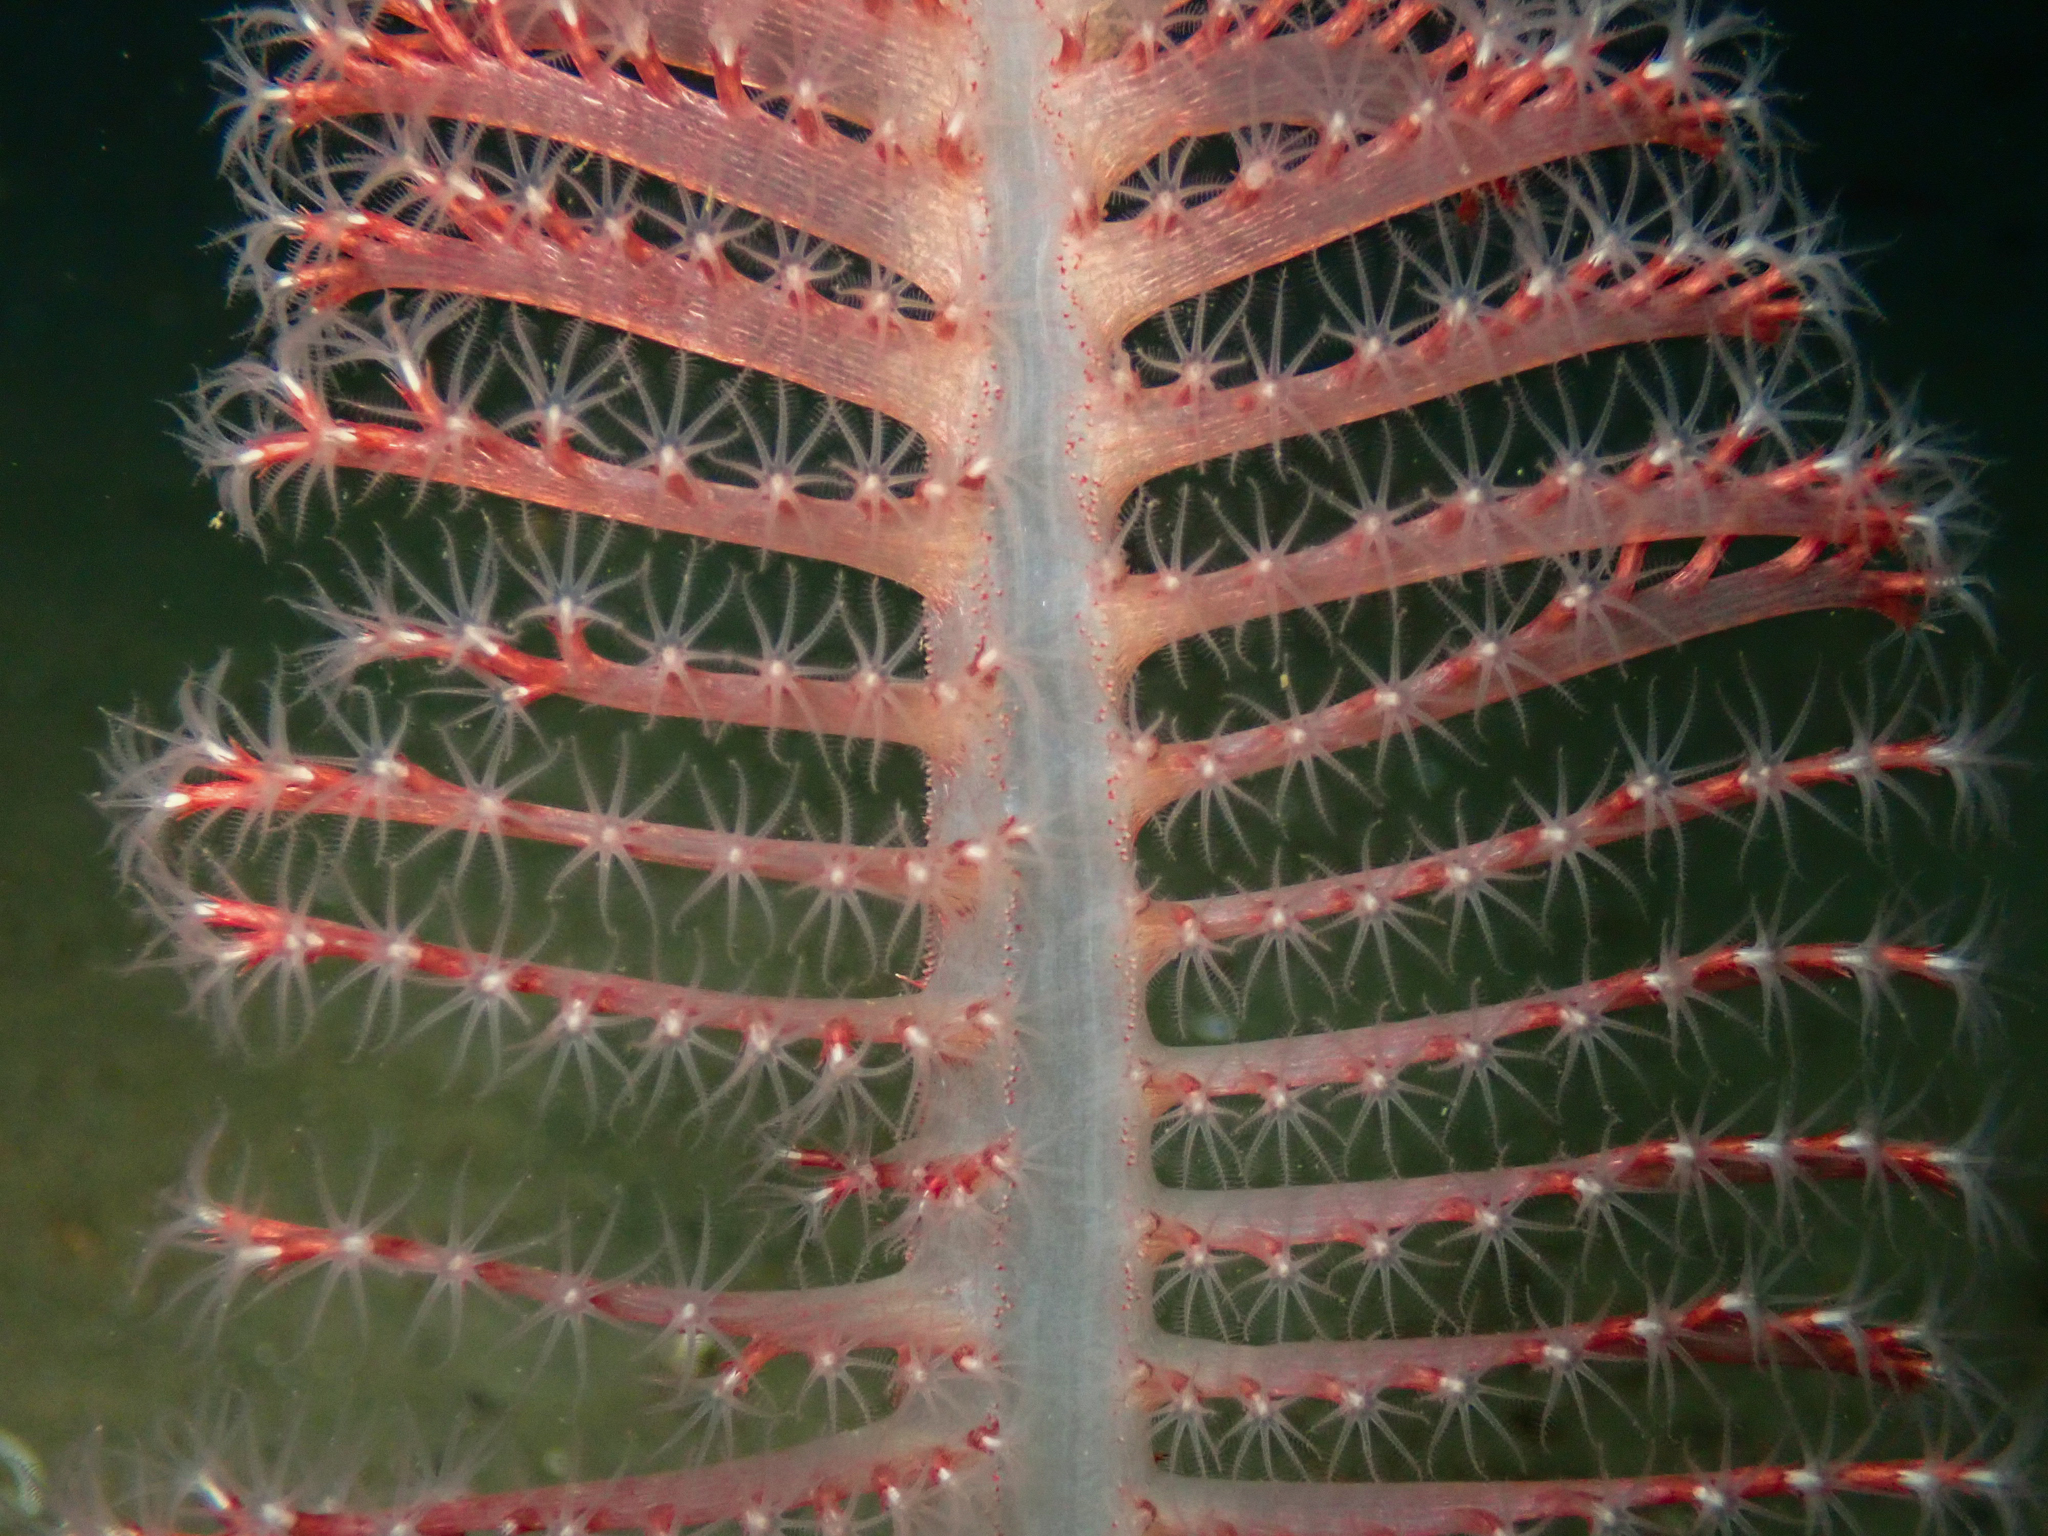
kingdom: Animalia
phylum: Cnidaria
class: Anthozoa
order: Scleralcyonacea
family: Pennatulidae
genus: Pennatula
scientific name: Pennatula phosphorea
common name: Phosphorescent sea pen
